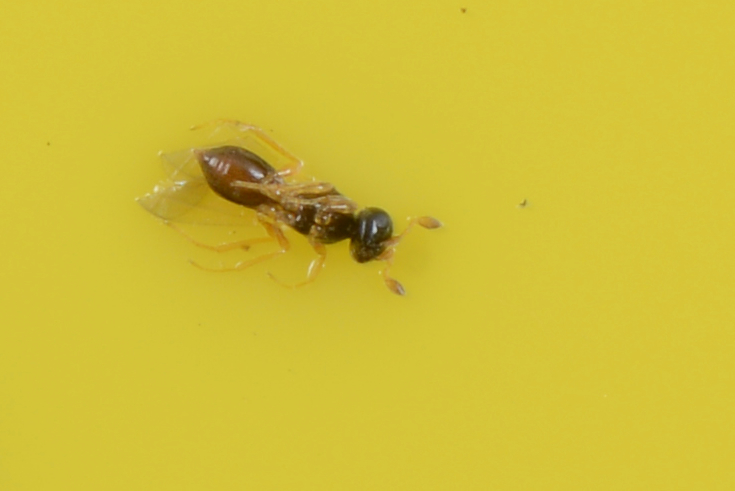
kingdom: Animalia
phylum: Arthropoda
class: Insecta
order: Hymenoptera
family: Platygastridae
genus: Aphanomerus
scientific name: Aphanomerus pusillus
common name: Parasitoid wasp
